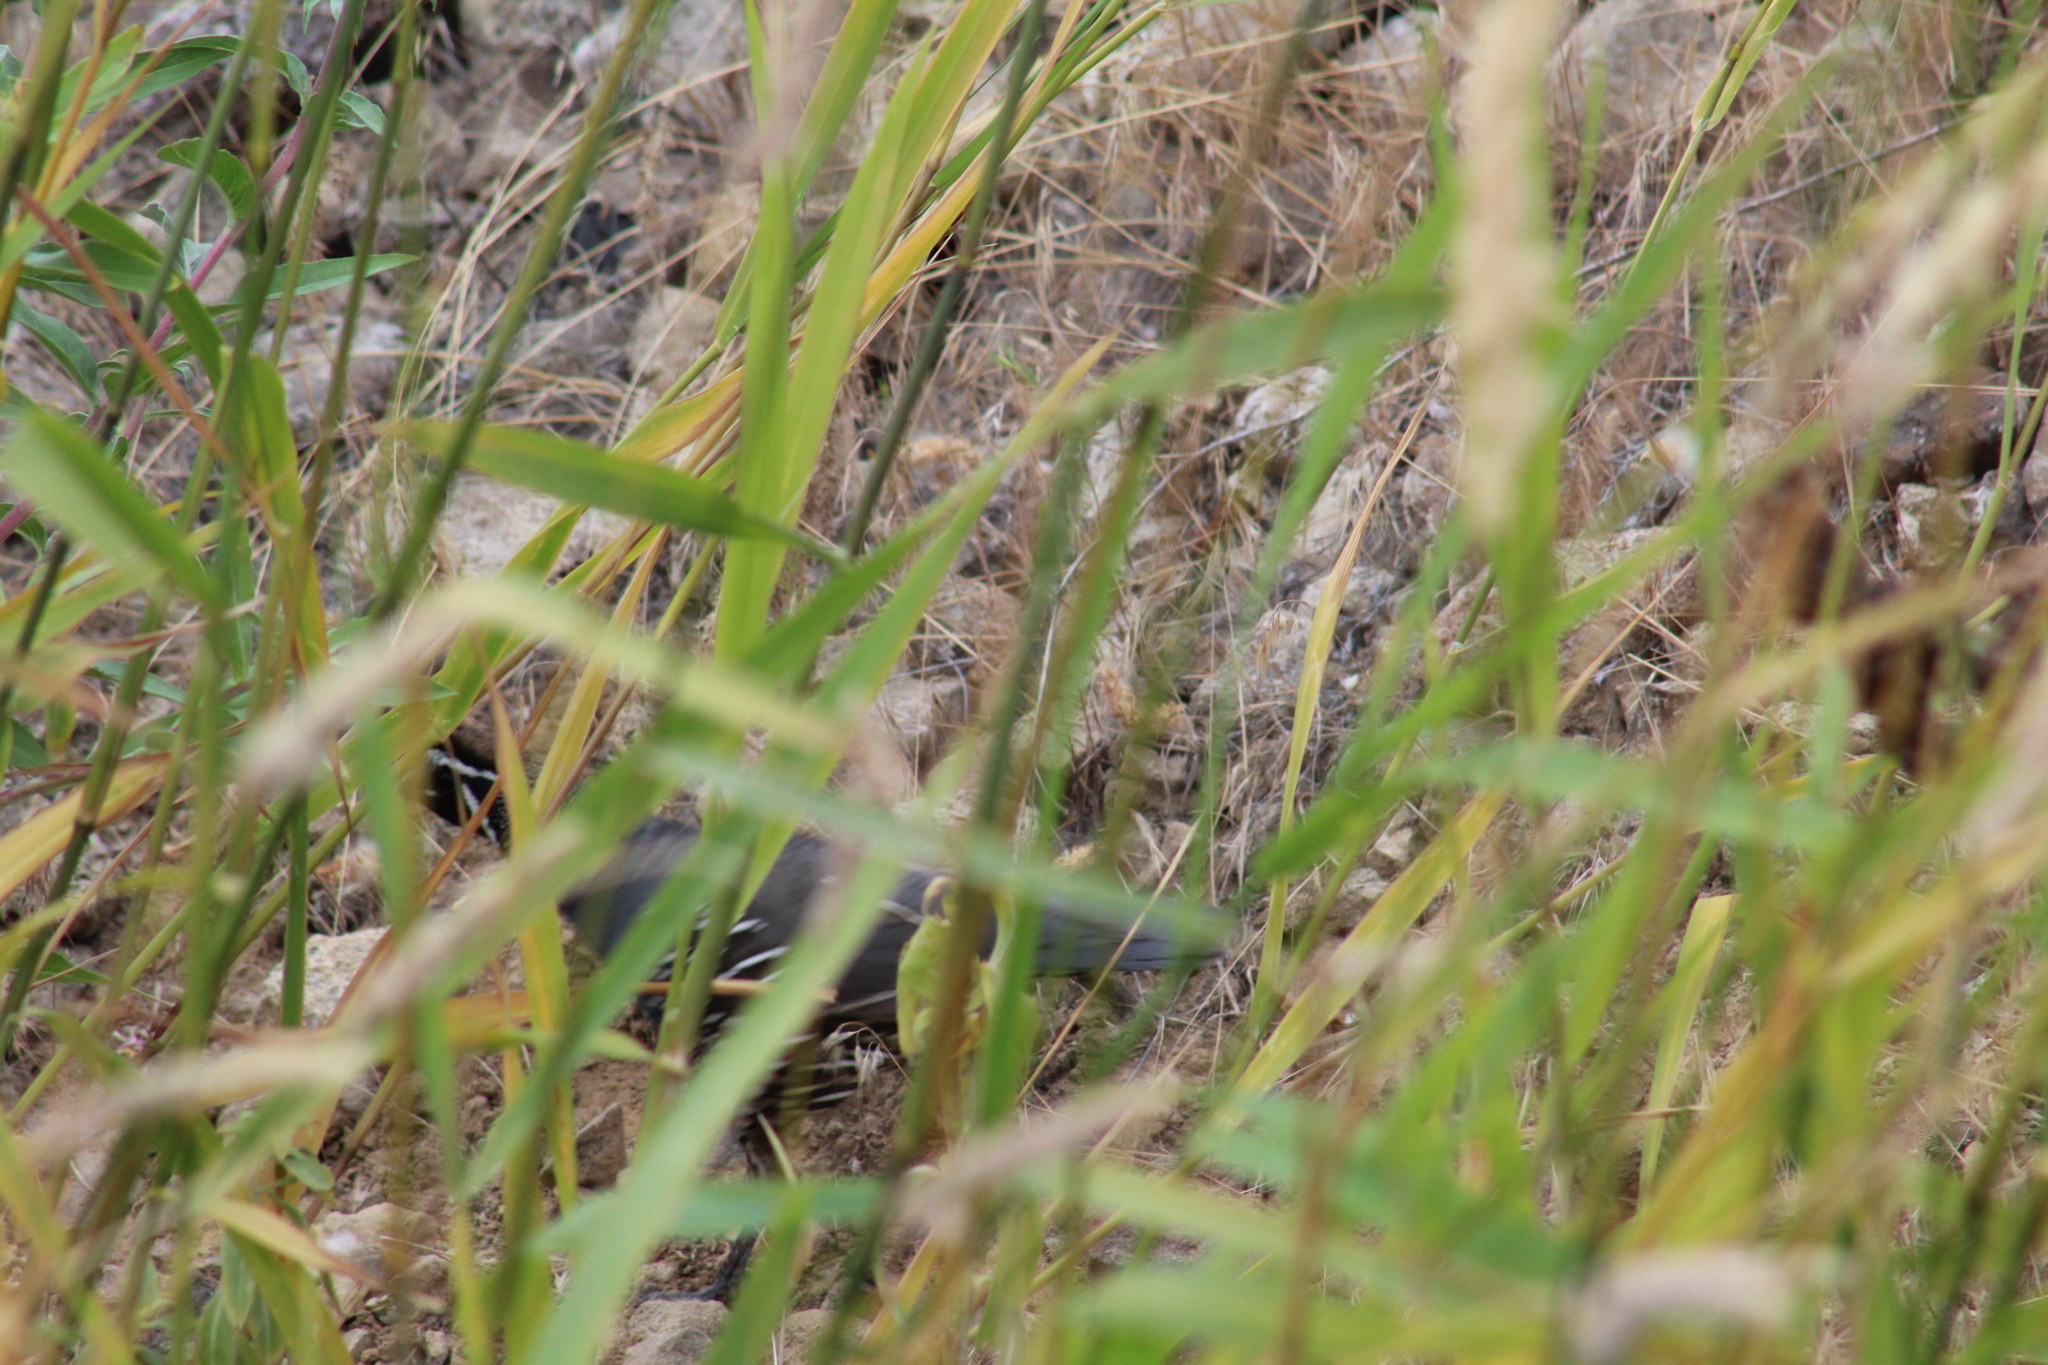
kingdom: Animalia
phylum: Chordata
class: Aves
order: Galliformes
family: Odontophoridae
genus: Callipepla
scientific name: Callipepla californica
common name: California quail
